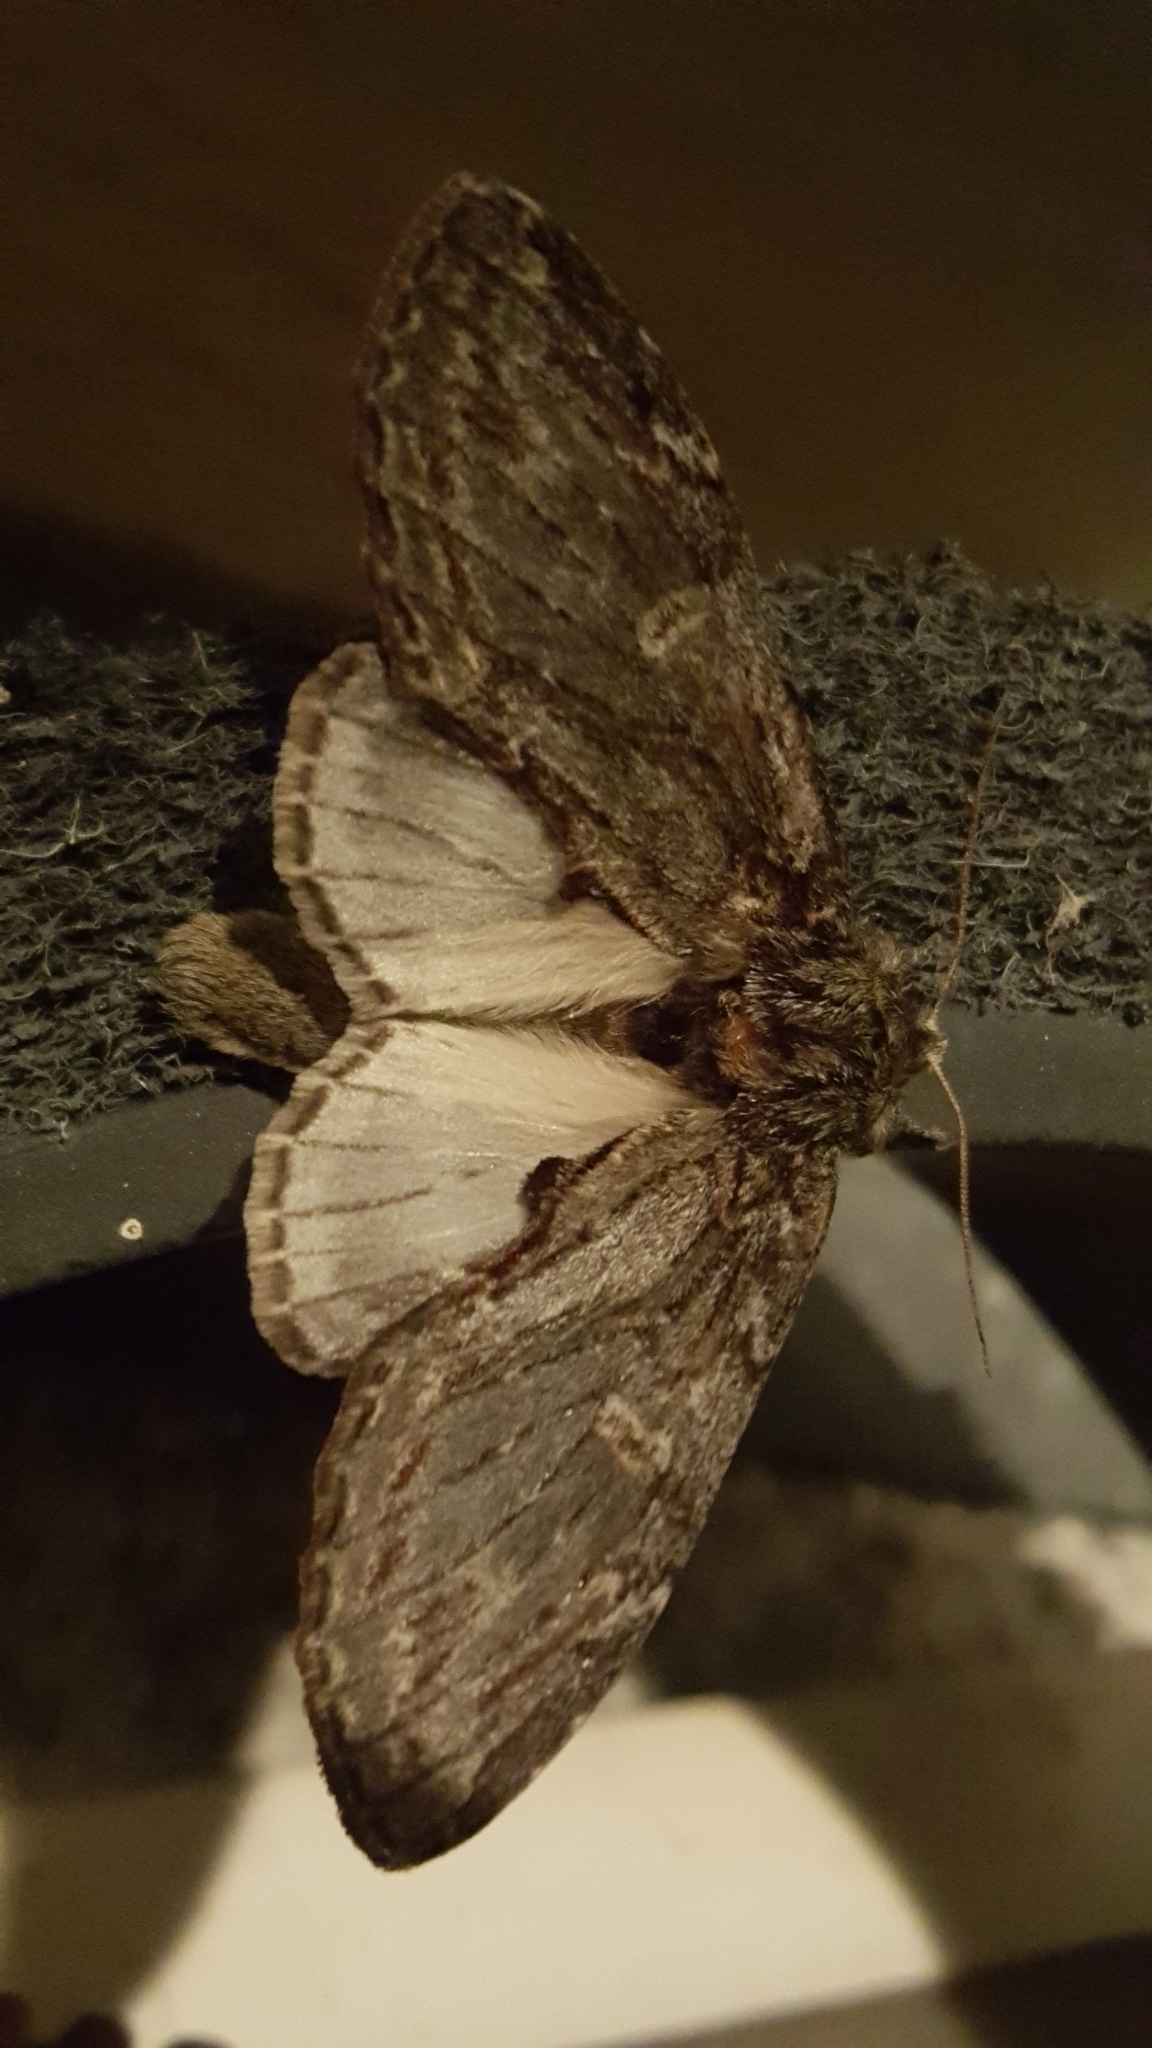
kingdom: Animalia
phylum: Arthropoda
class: Insecta
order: Lepidoptera
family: Notodontidae
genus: Peridea
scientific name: Peridea anceps
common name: Great prominent
